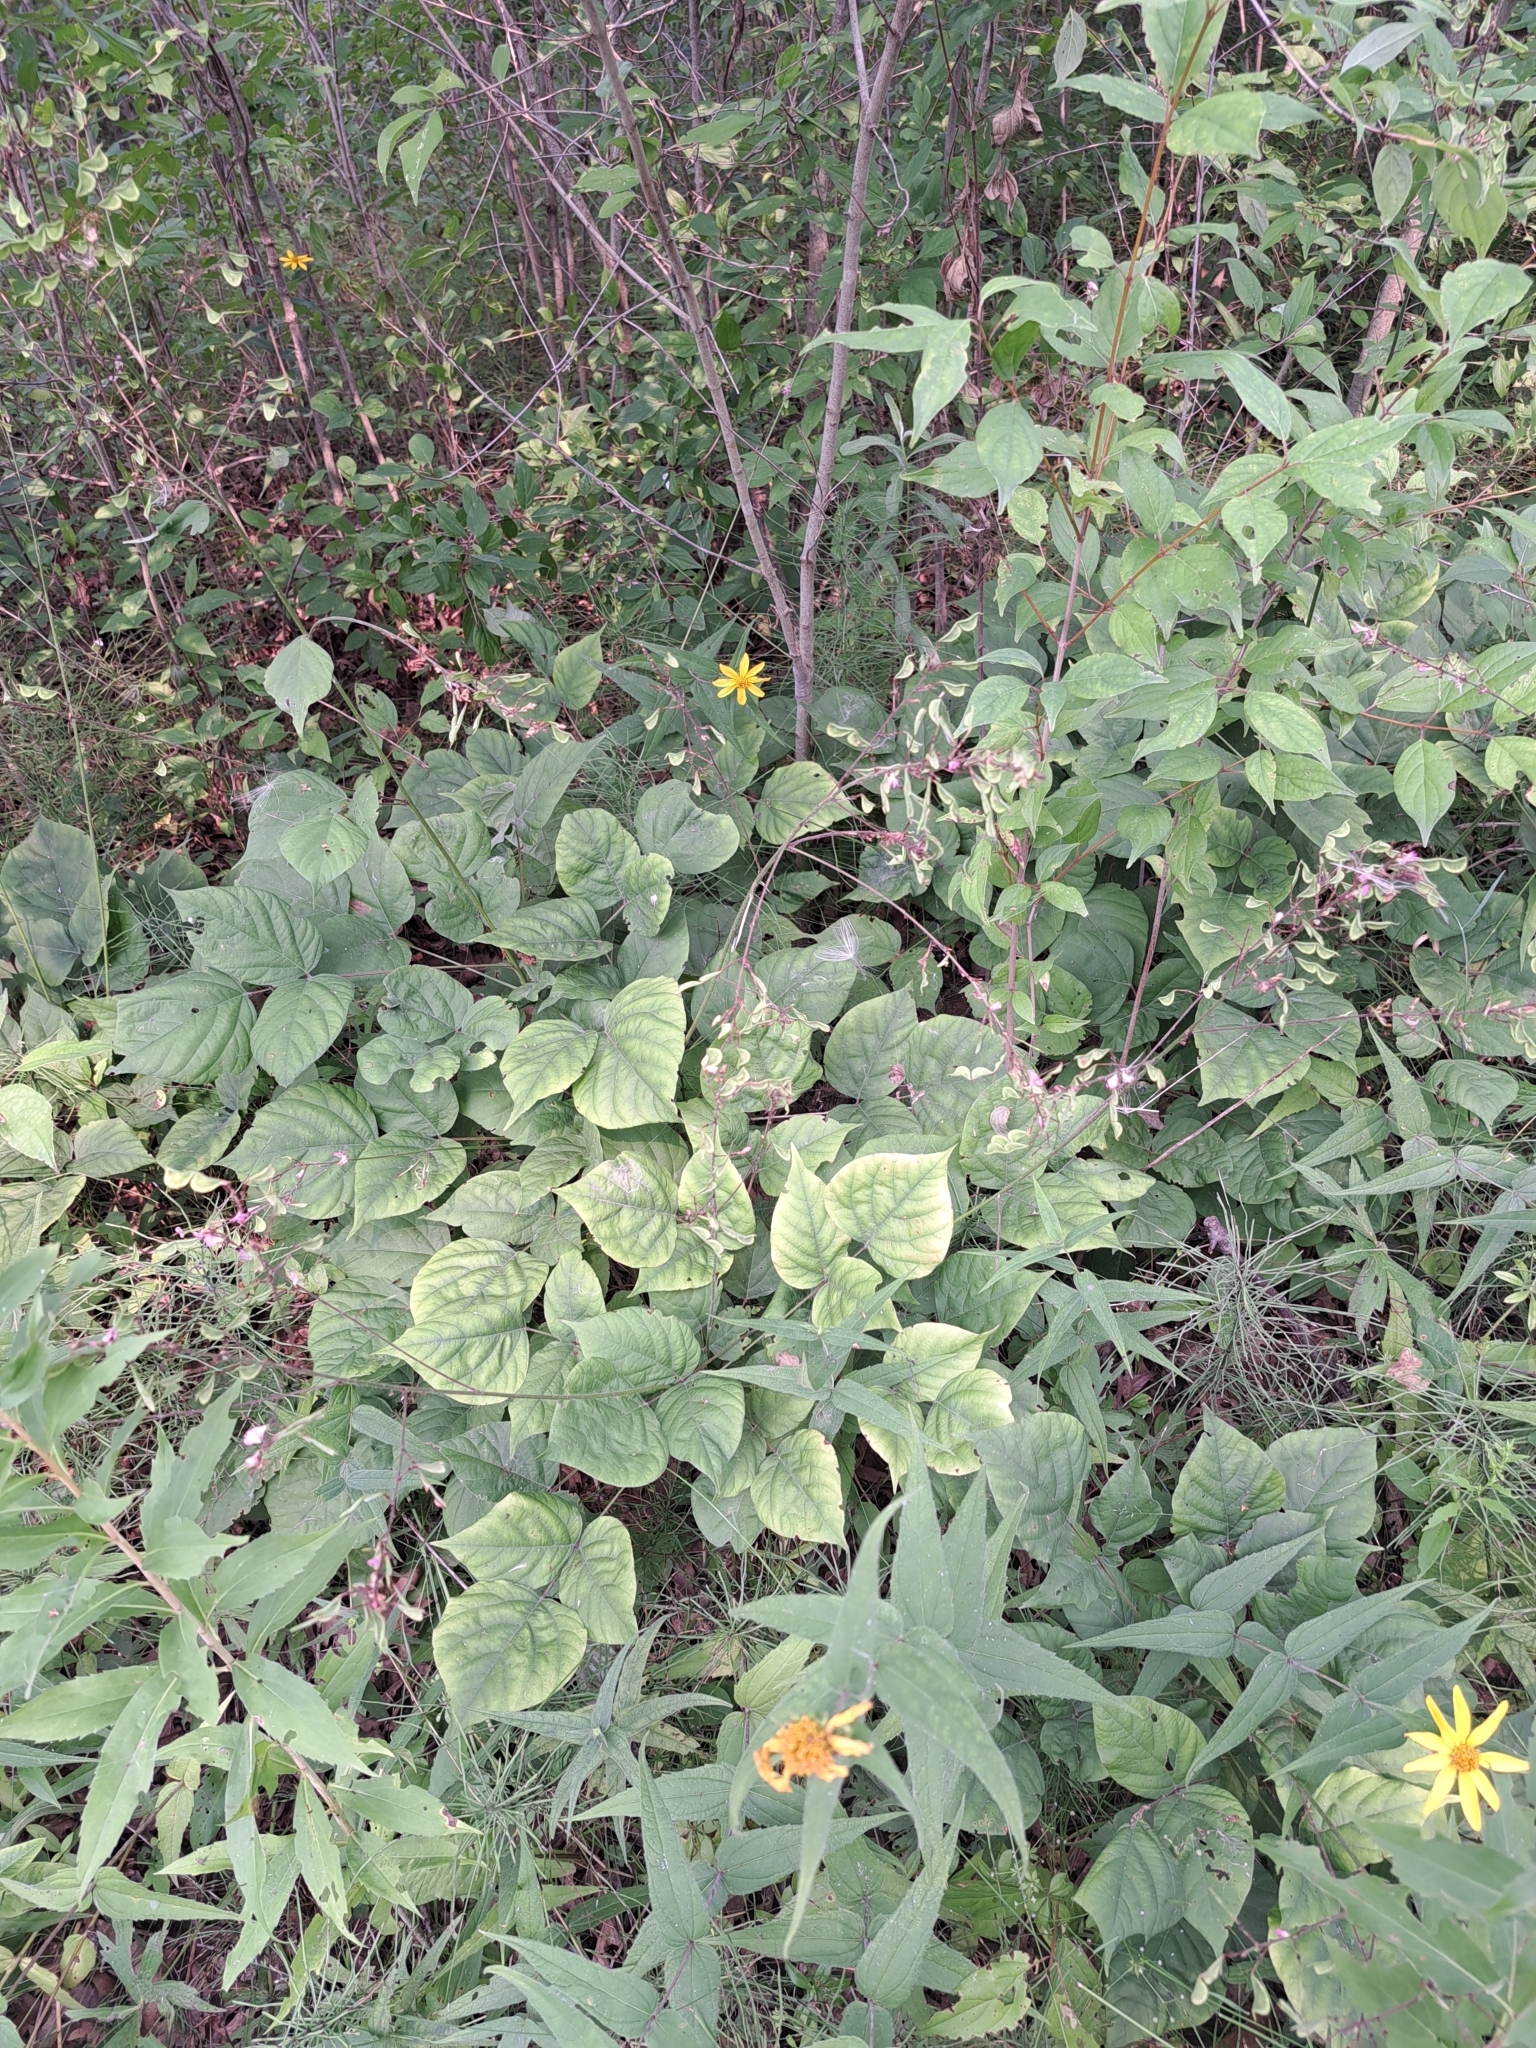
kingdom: Plantae
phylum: Tracheophyta
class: Magnoliopsida
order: Fabales
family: Fabaceae
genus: Hylodesmum
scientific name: Hylodesmum glutinosum
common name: Clustered-leaved tick-trefoil
